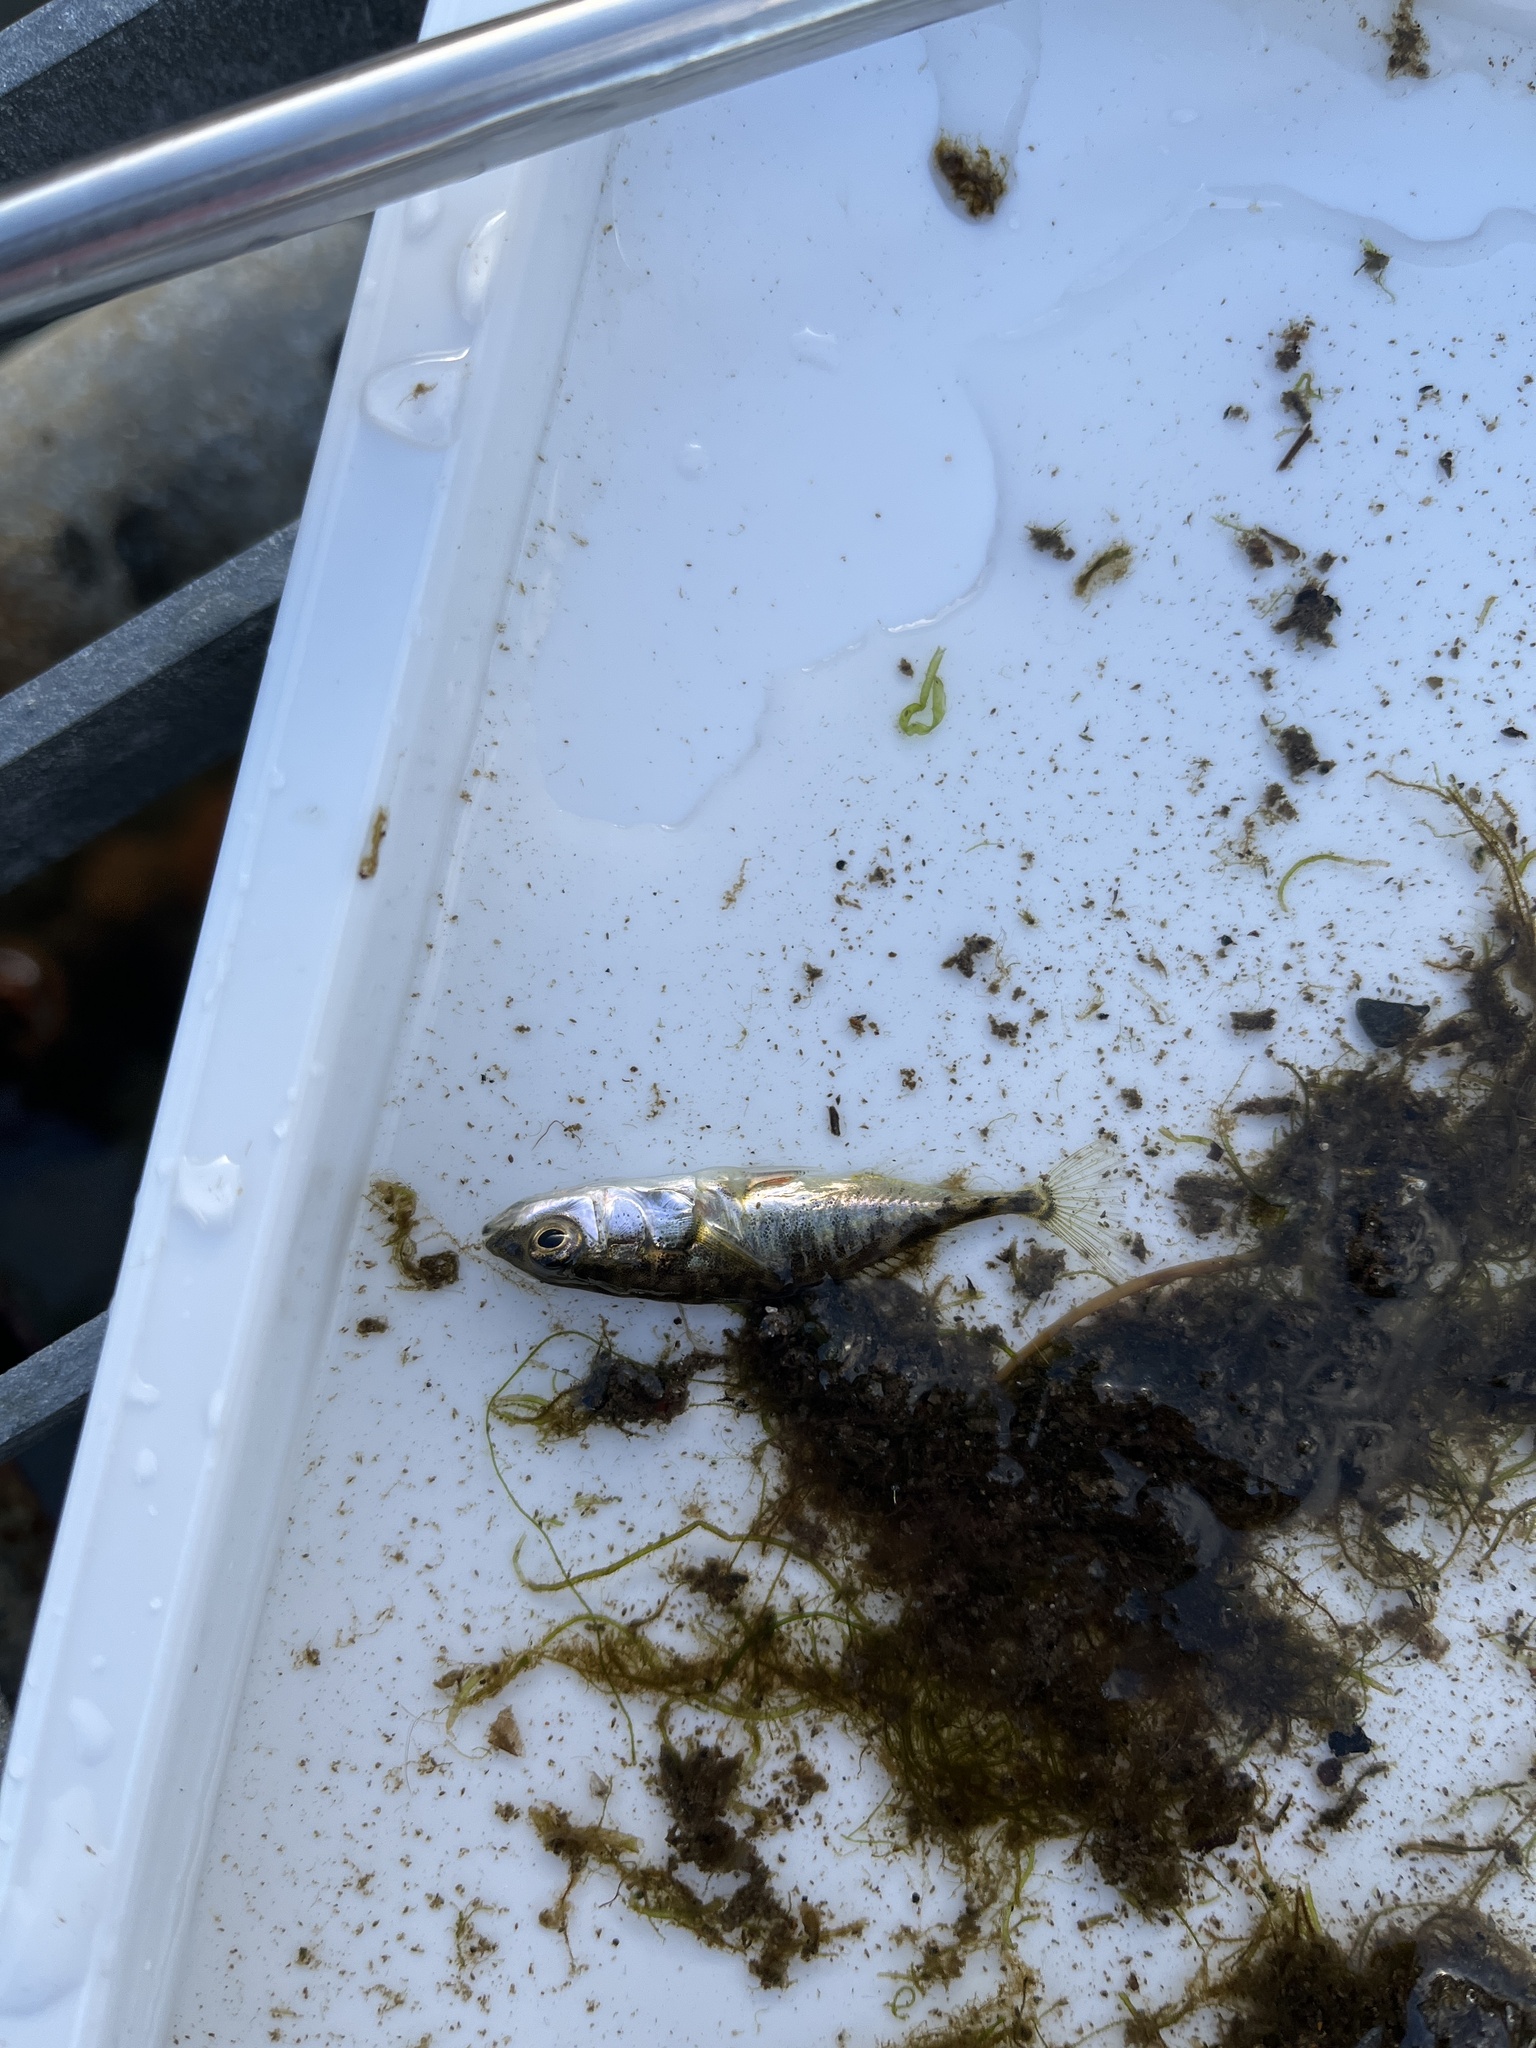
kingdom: Animalia
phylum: Chordata
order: Gasterosteiformes
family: Gasterosteidae
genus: Gasterosteus
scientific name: Gasterosteus aculeatus
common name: Three-spined stickleback
